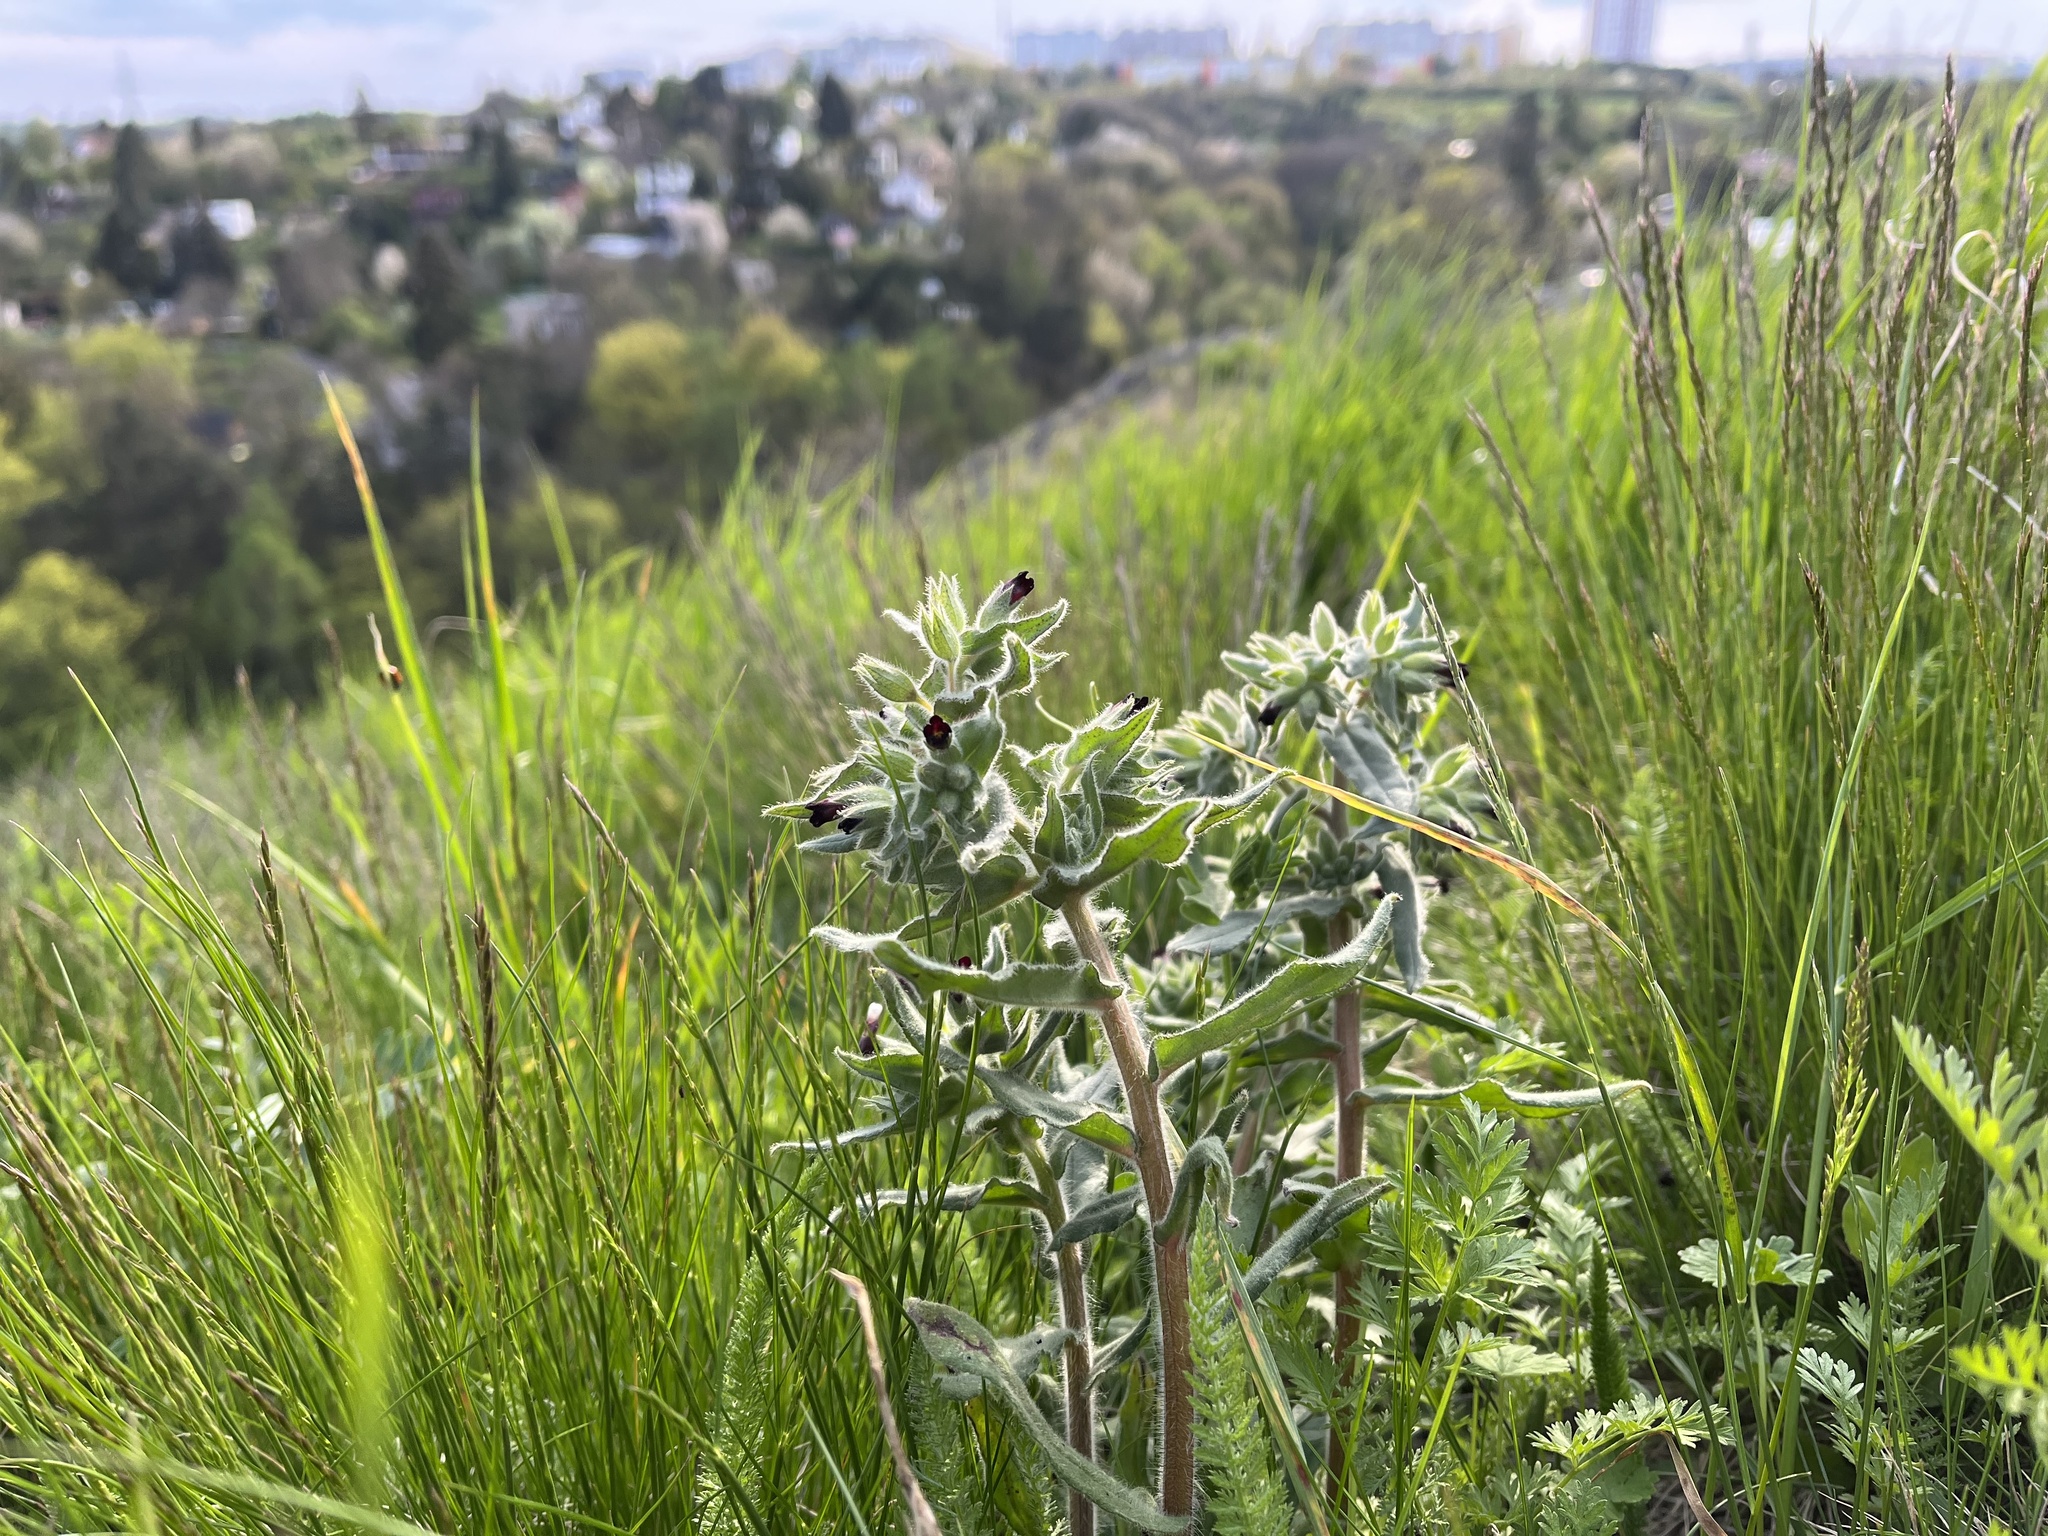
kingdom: Plantae
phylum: Tracheophyta
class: Magnoliopsida
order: Boraginales
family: Boraginaceae
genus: Nonea
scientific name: Nonea pulla
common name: Brown nonea
